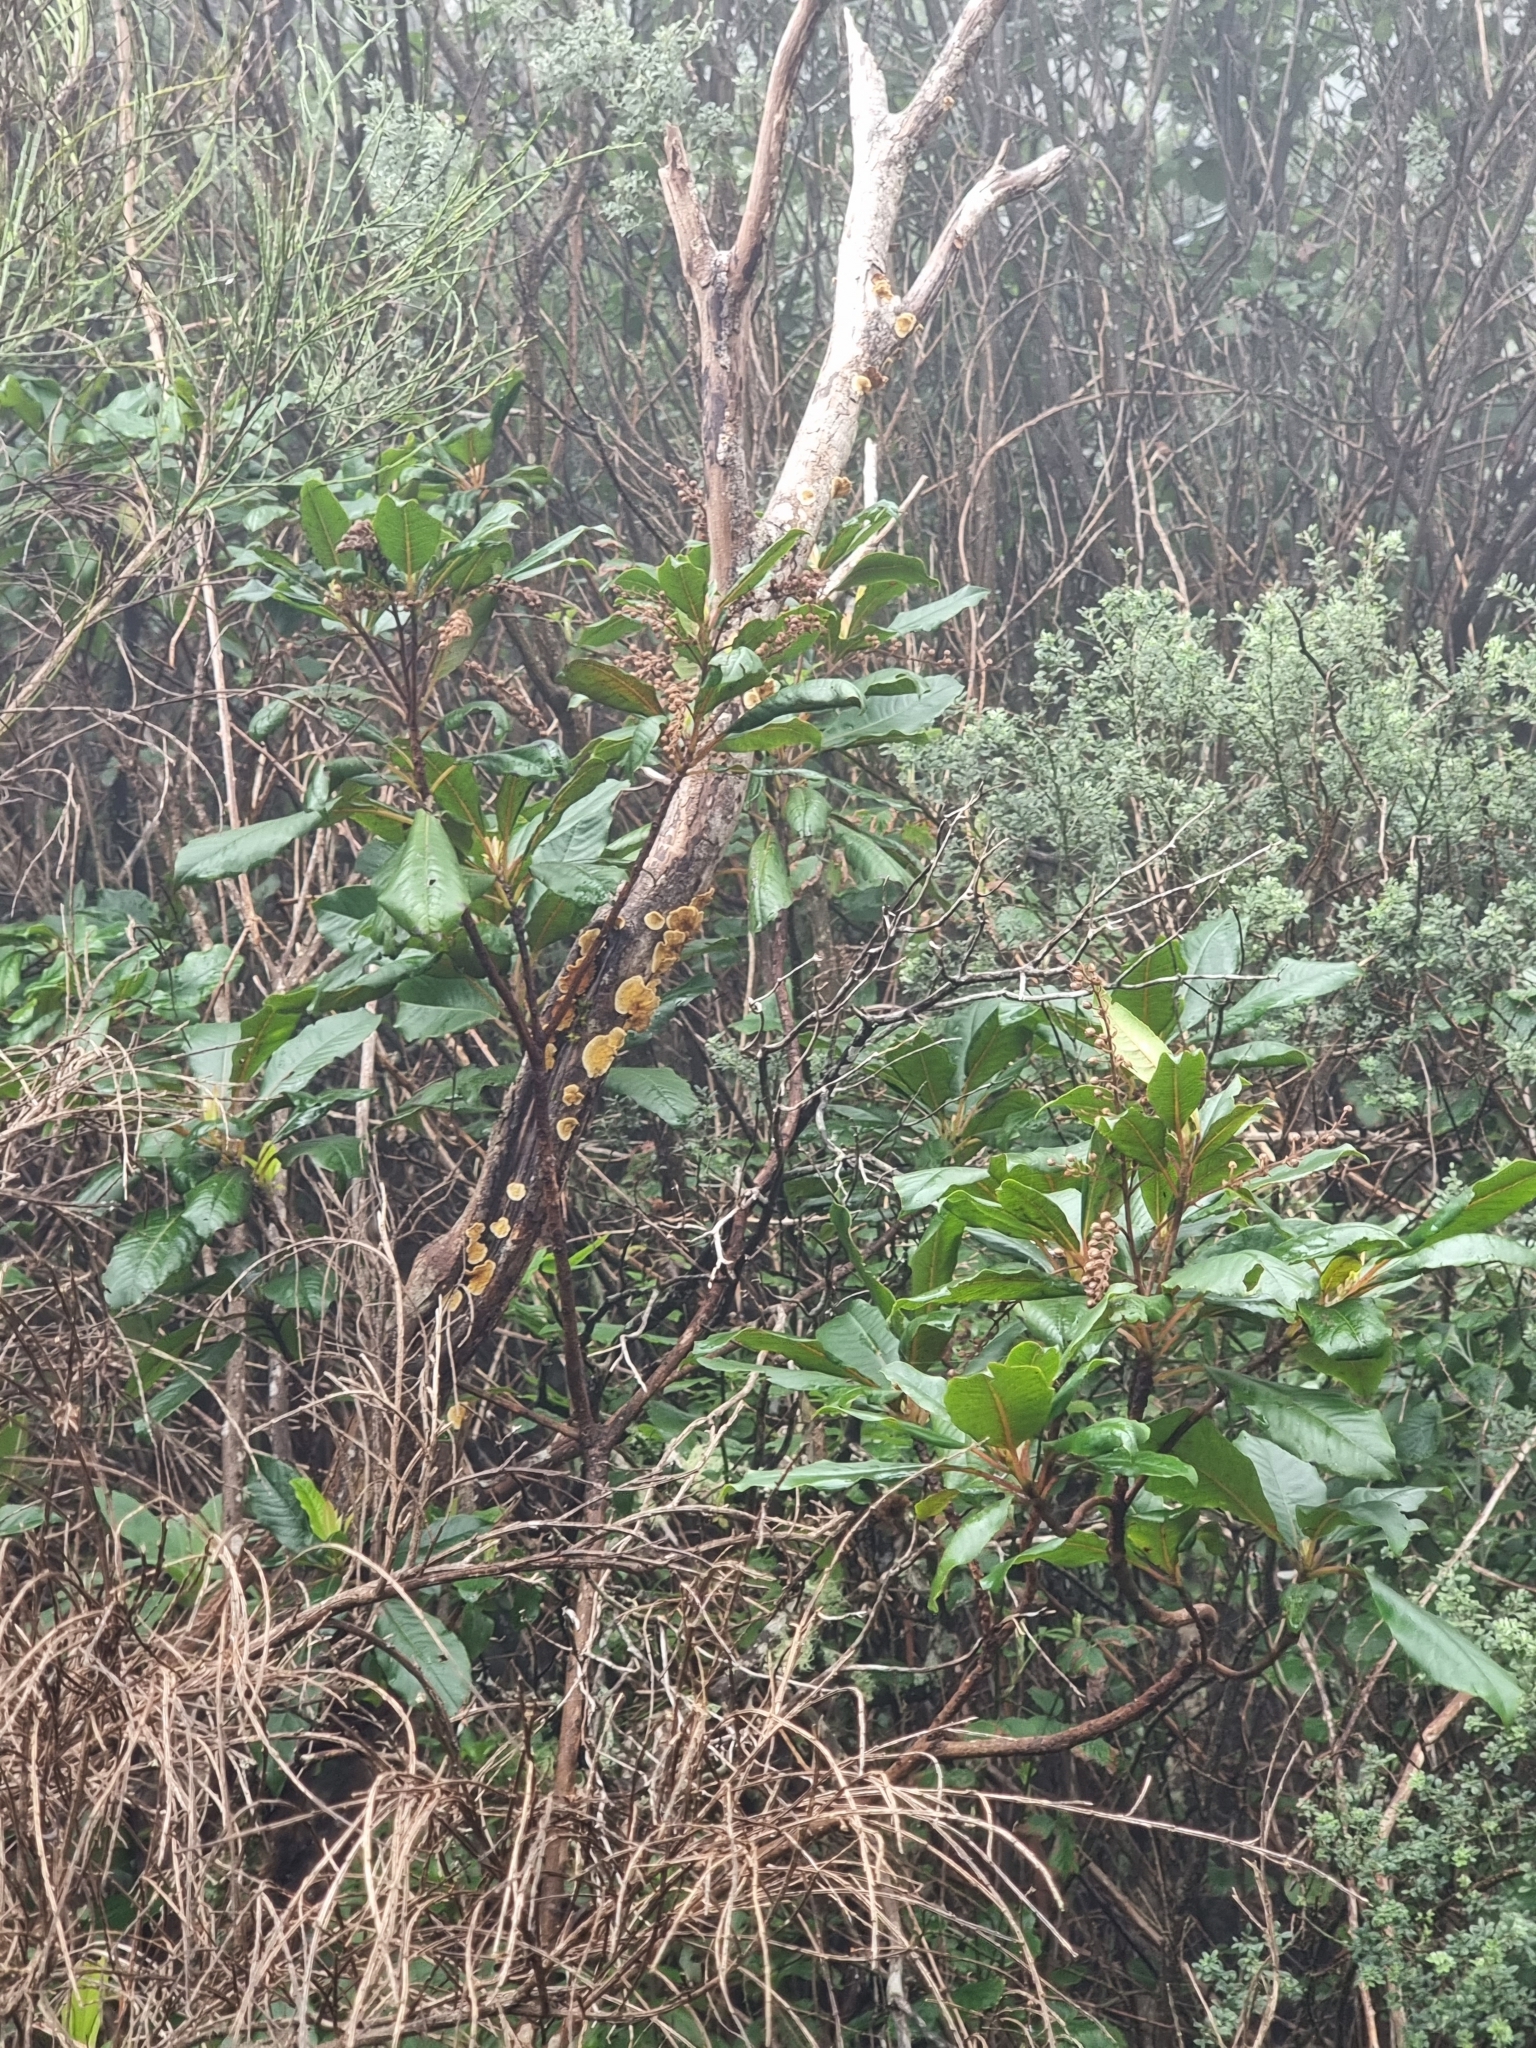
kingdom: Plantae
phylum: Tracheophyta
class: Magnoliopsida
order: Ericales
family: Clethraceae
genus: Clethra
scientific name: Clethra arborea
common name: Lily-of-the-valley-tree
